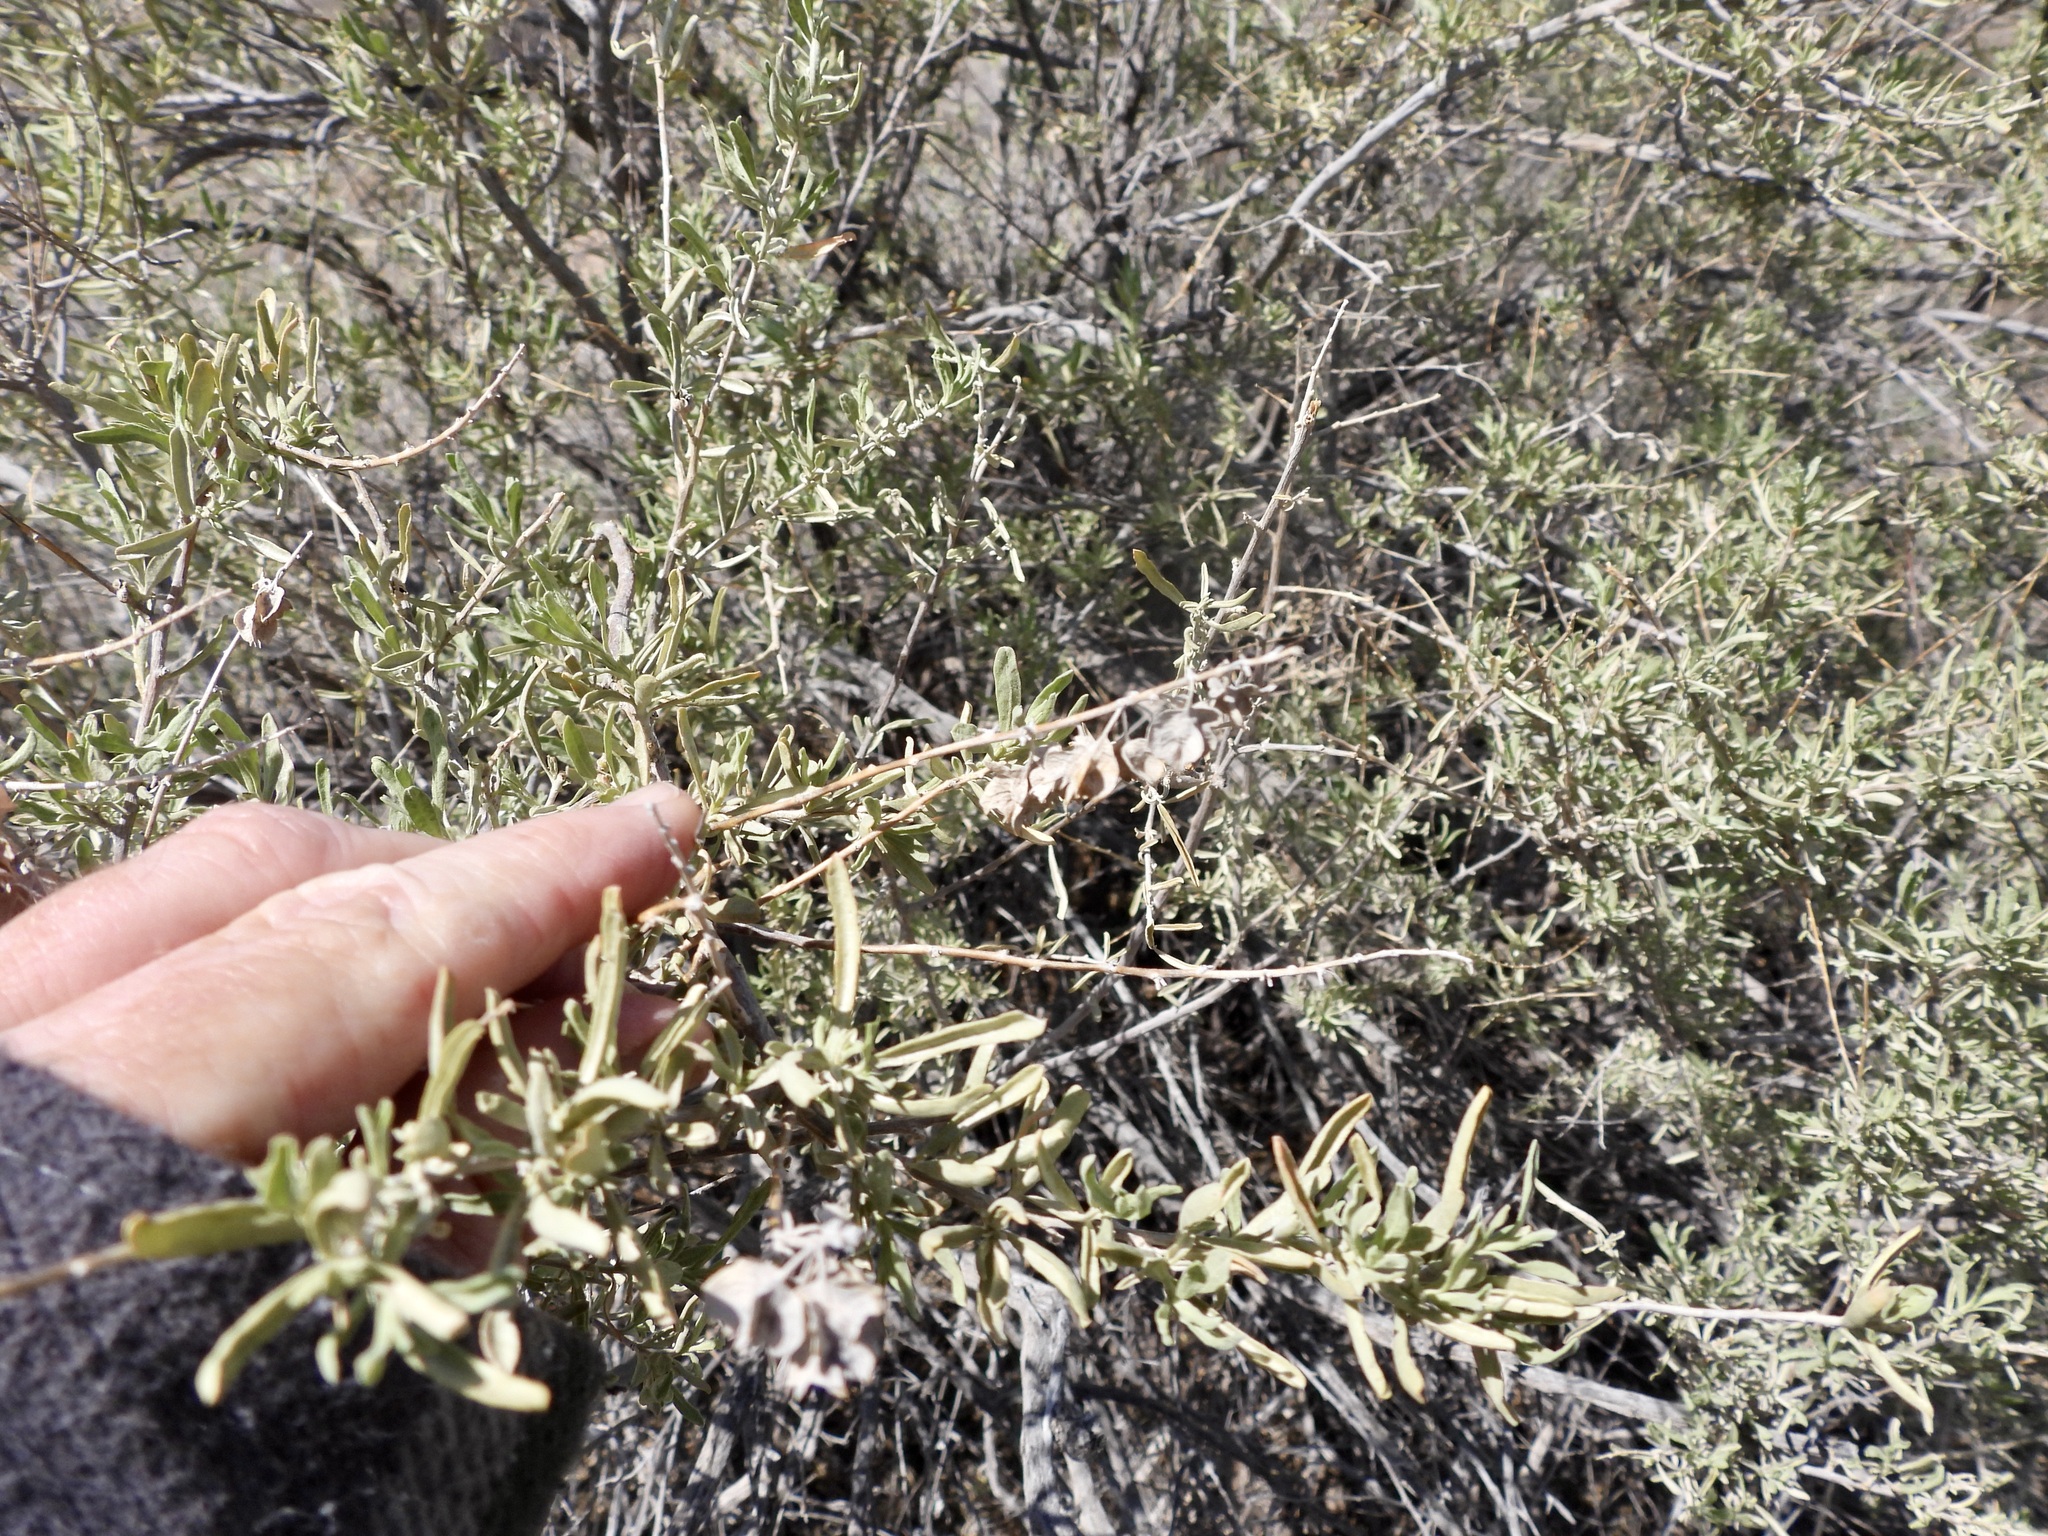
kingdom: Plantae
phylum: Tracheophyta
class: Magnoliopsida
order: Caryophyllales
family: Amaranthaceae
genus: Atriplex
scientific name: Atriplex canescens
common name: Four-wing saltbush
